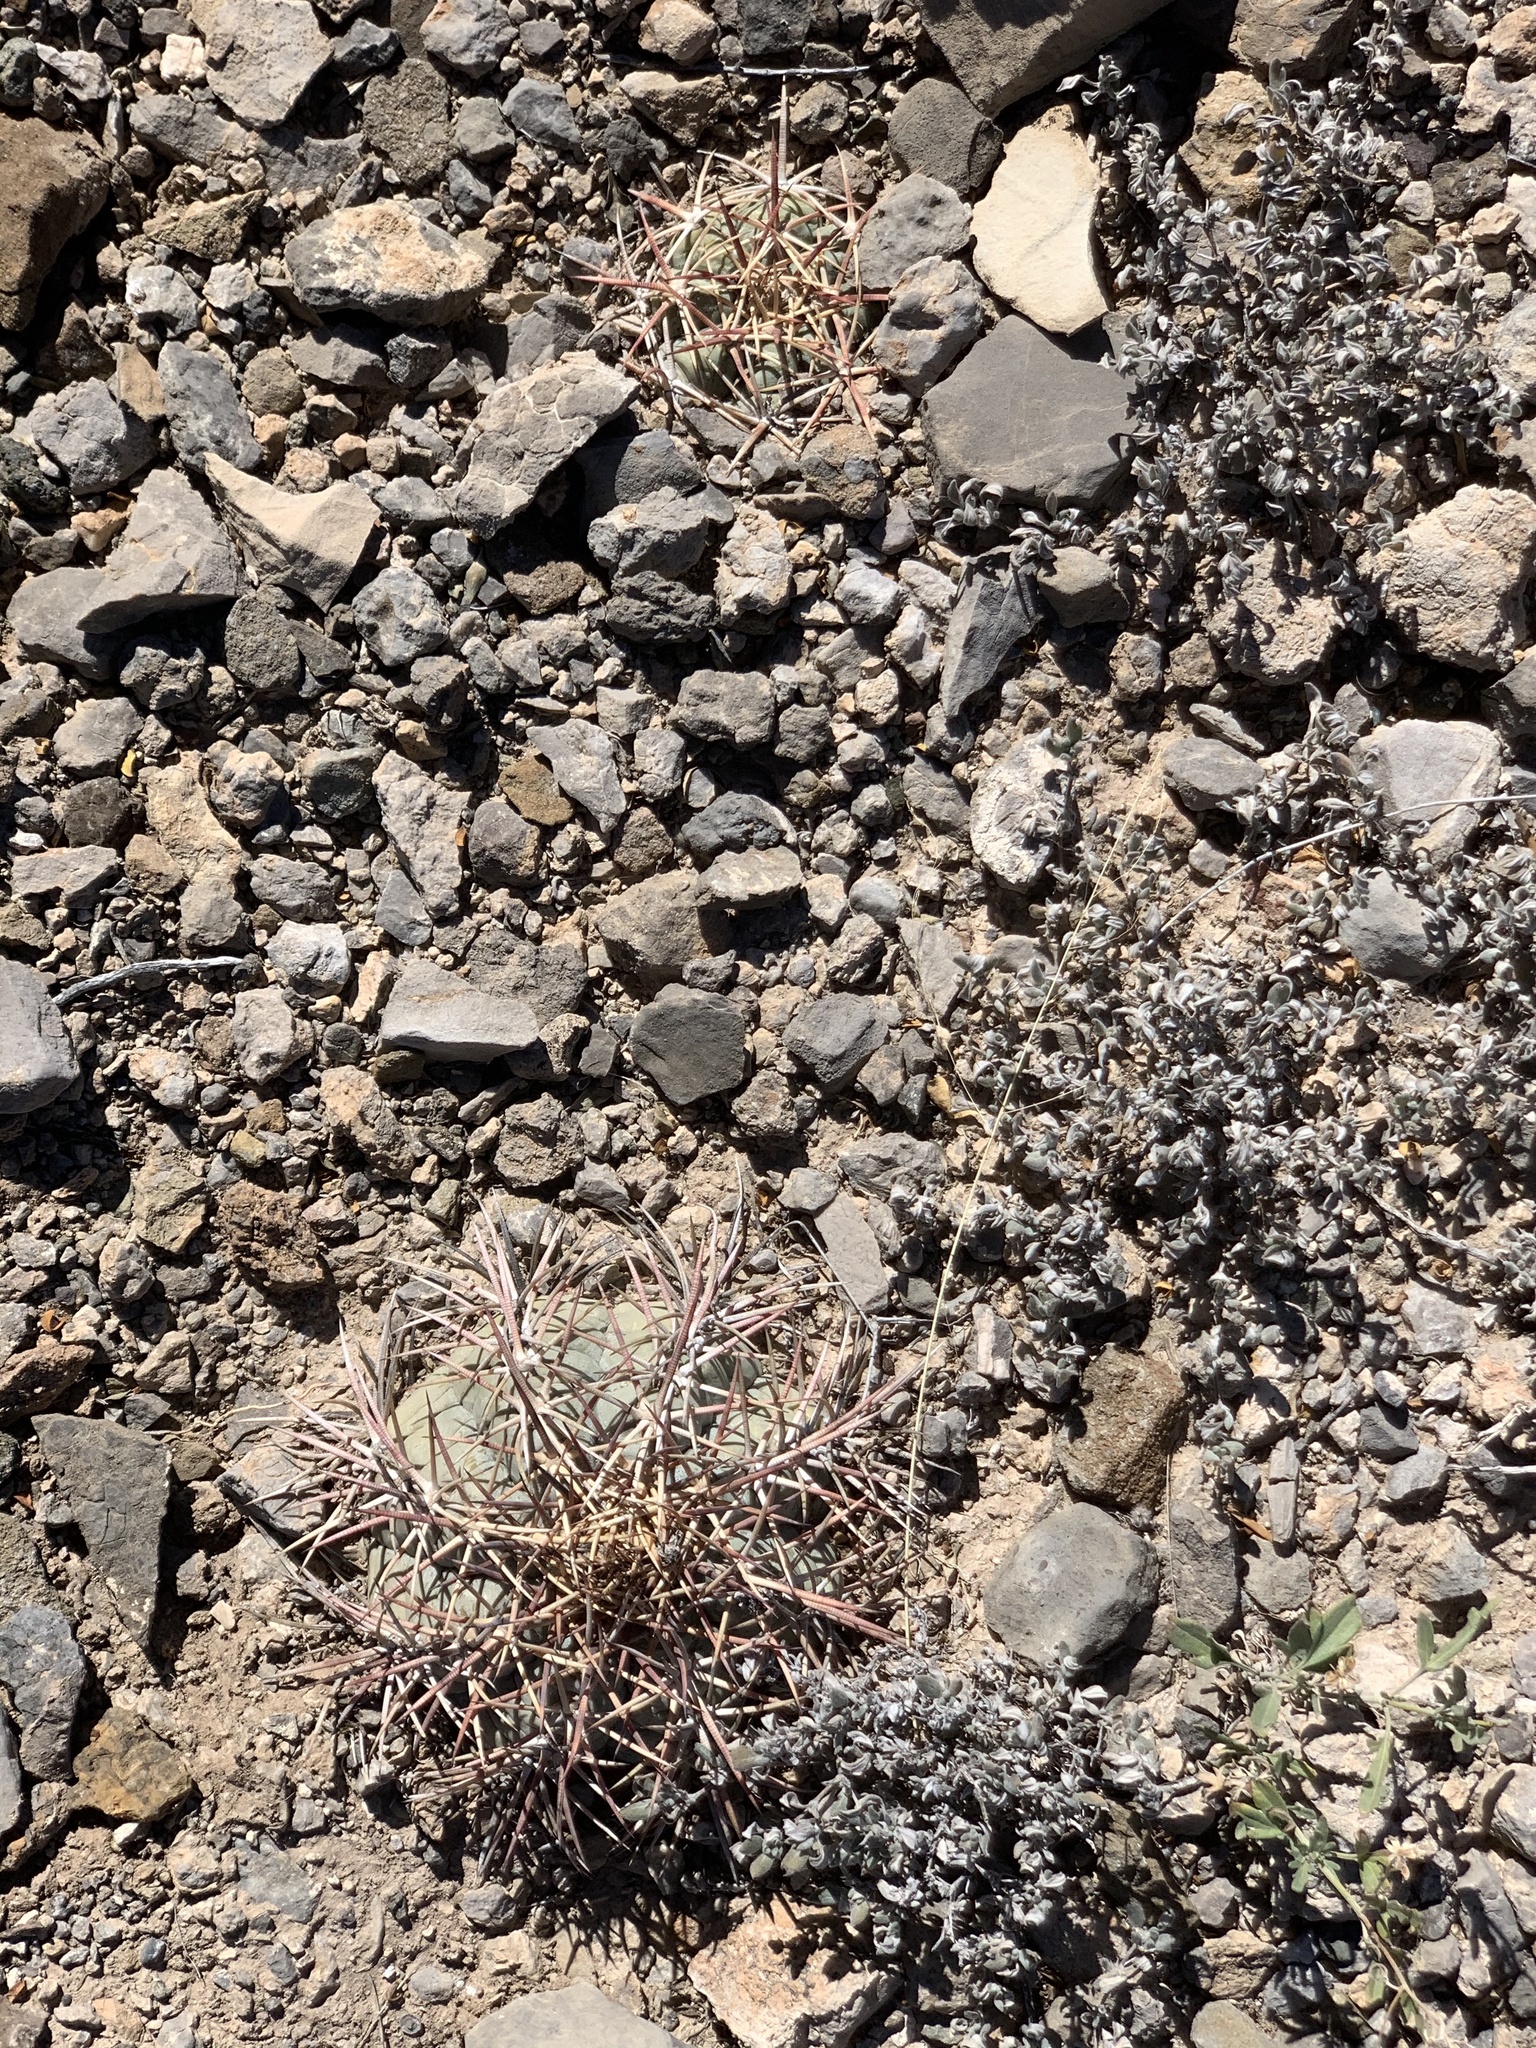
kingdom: Plantae
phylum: Tracheophyta
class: Magnoliopsida
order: Caryophyllales
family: Cactaceae
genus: Echinocactus
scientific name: Echinocactus horizonthalonius
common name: Devilshead
